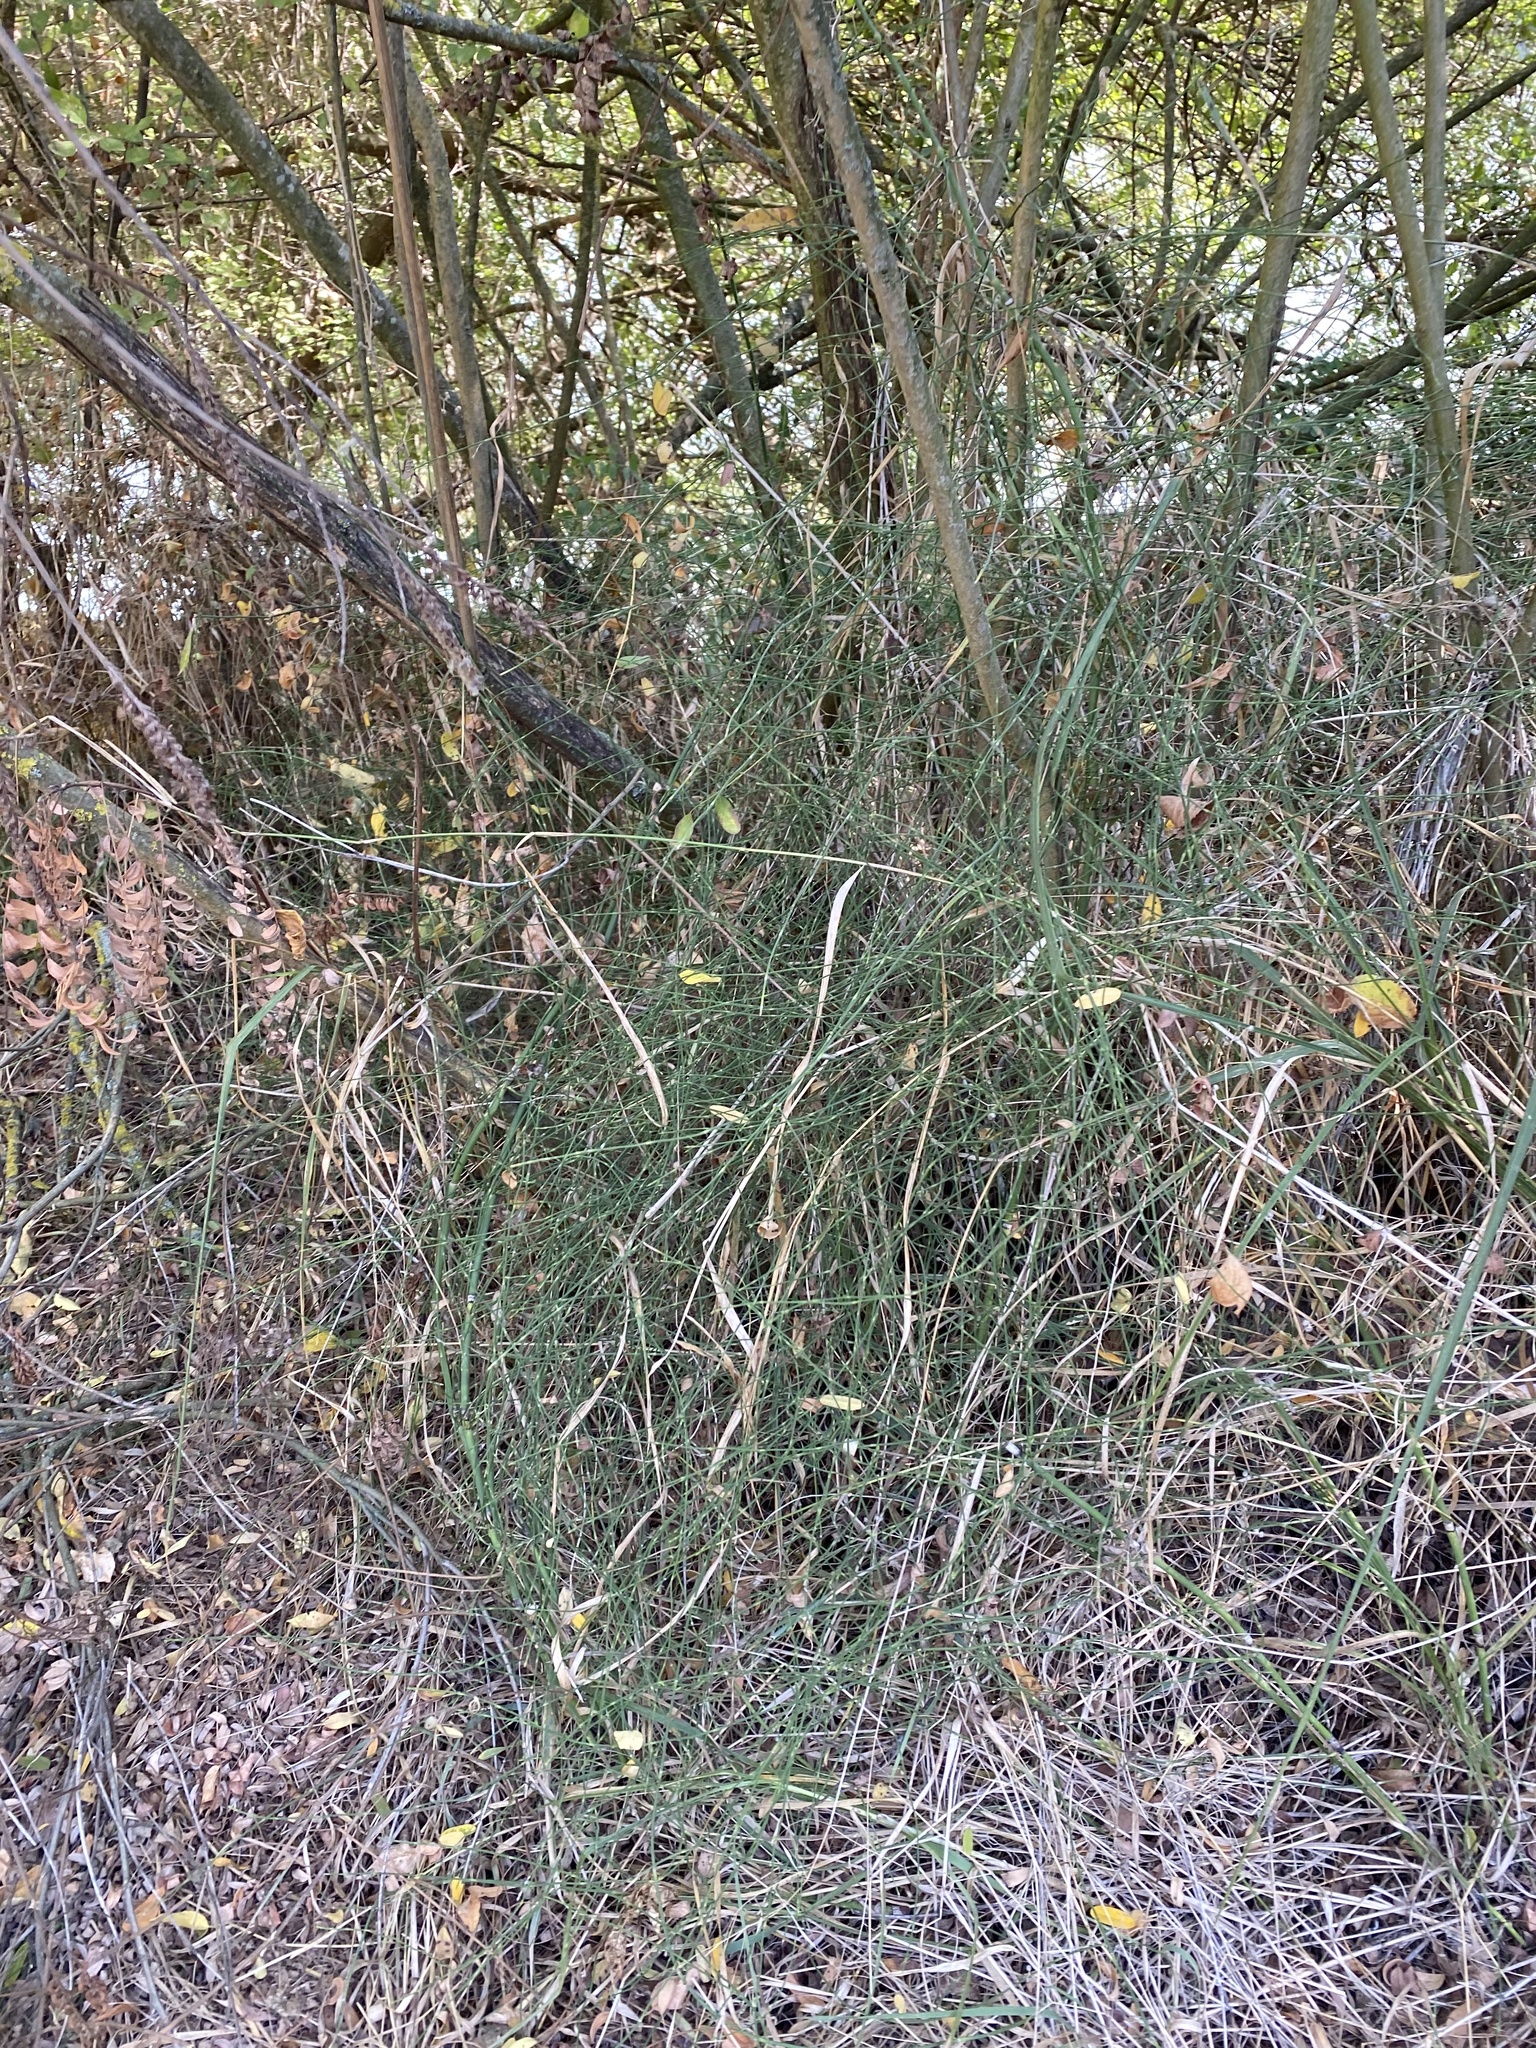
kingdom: Plantae
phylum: Tracheophyta
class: Polypodiopsida
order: Equisetales
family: Equisetaceae
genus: Equisetum
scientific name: Equisetum ramosissimum
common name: Branched horsetail
